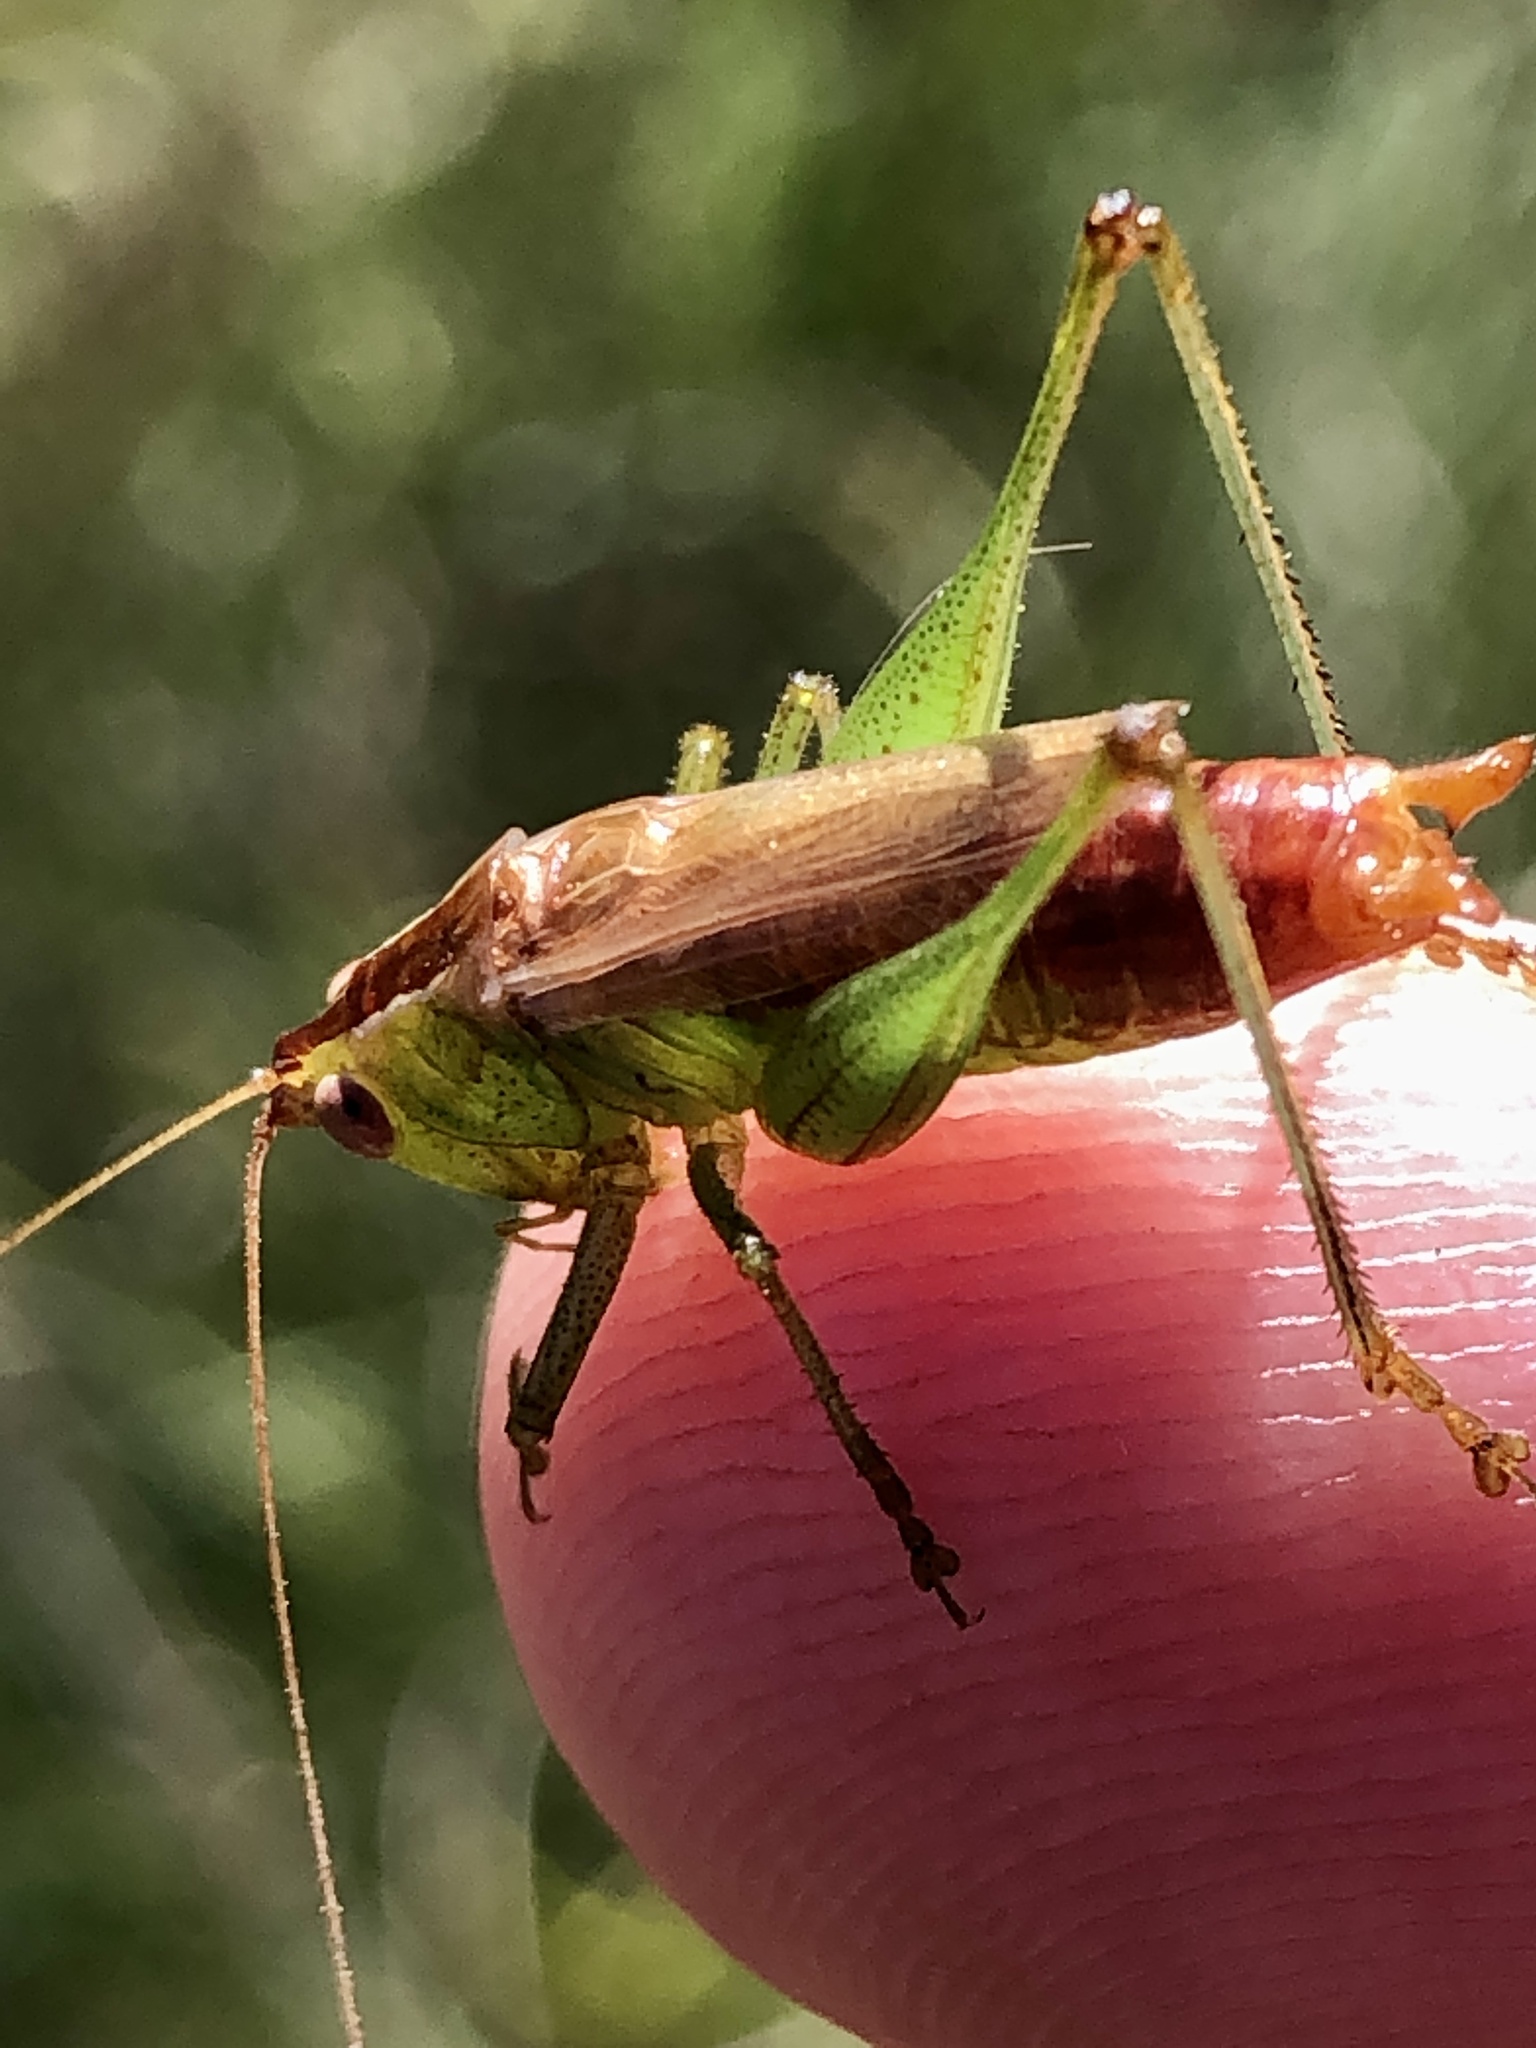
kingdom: Animalia
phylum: Arthropoda
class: Insecta
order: Orthoptera
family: Tettigoniidae
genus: Conocephalus
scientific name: Conocephalus brevipennis
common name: Short-winged meadow katydid
